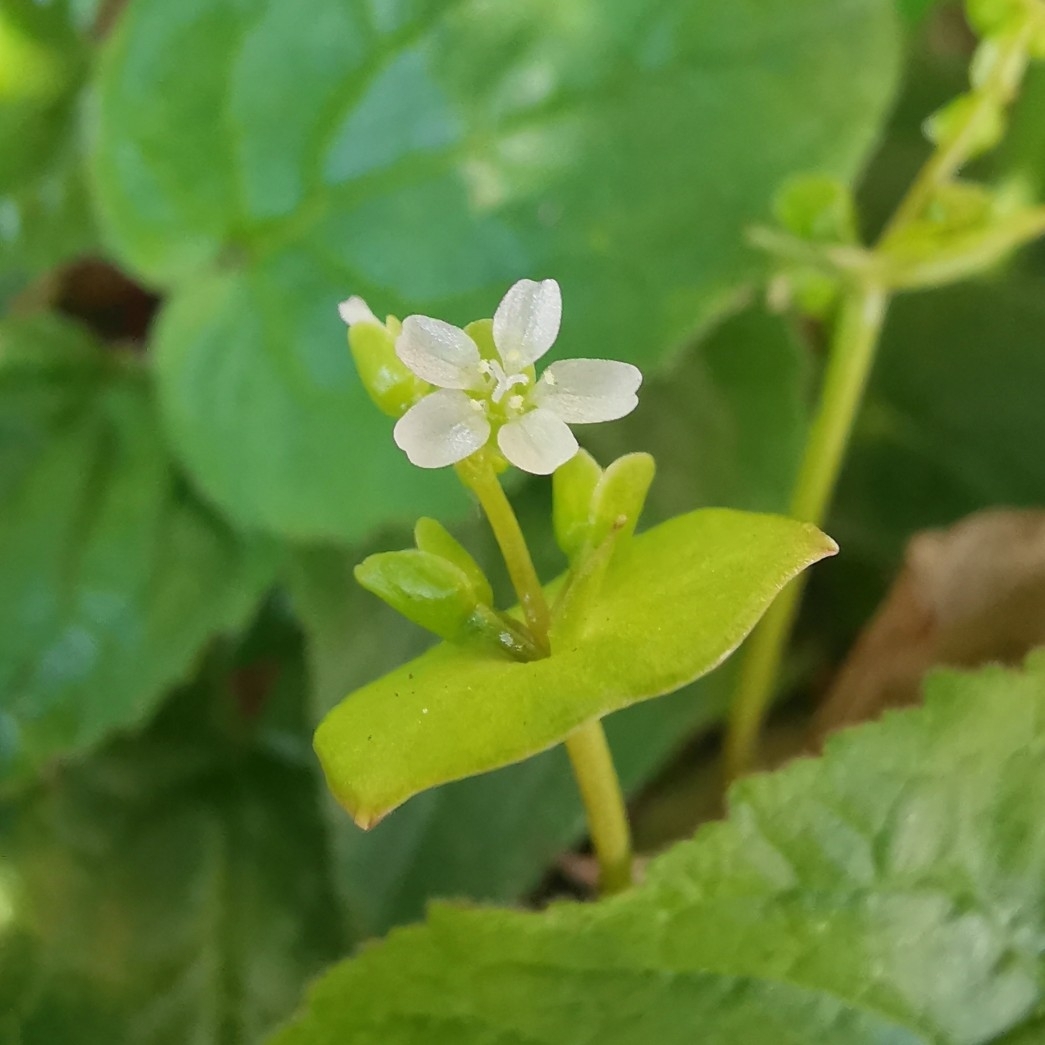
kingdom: Plantae
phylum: Tracheophyta
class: Magnoliopsida
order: Caryophyllales
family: Montiaceae
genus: Claytonia
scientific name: Claytonia perfoliata
